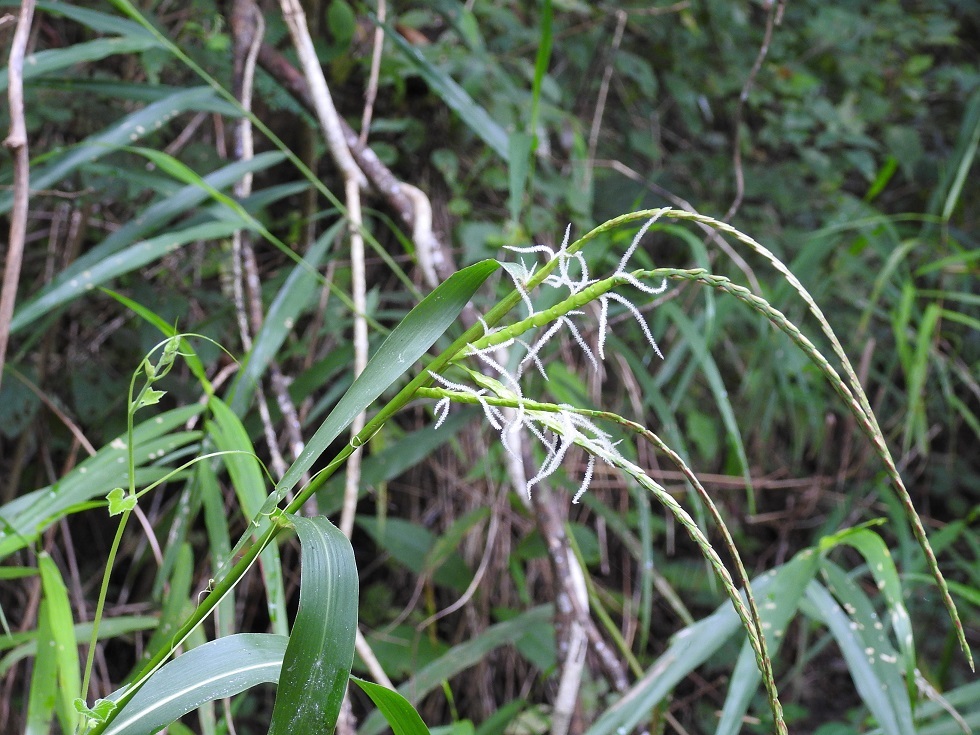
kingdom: Plantae
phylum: Tracheophyta
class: Liliopsida
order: Poales
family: Poaceae
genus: Tripsacum
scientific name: Tripsacum jalapense
